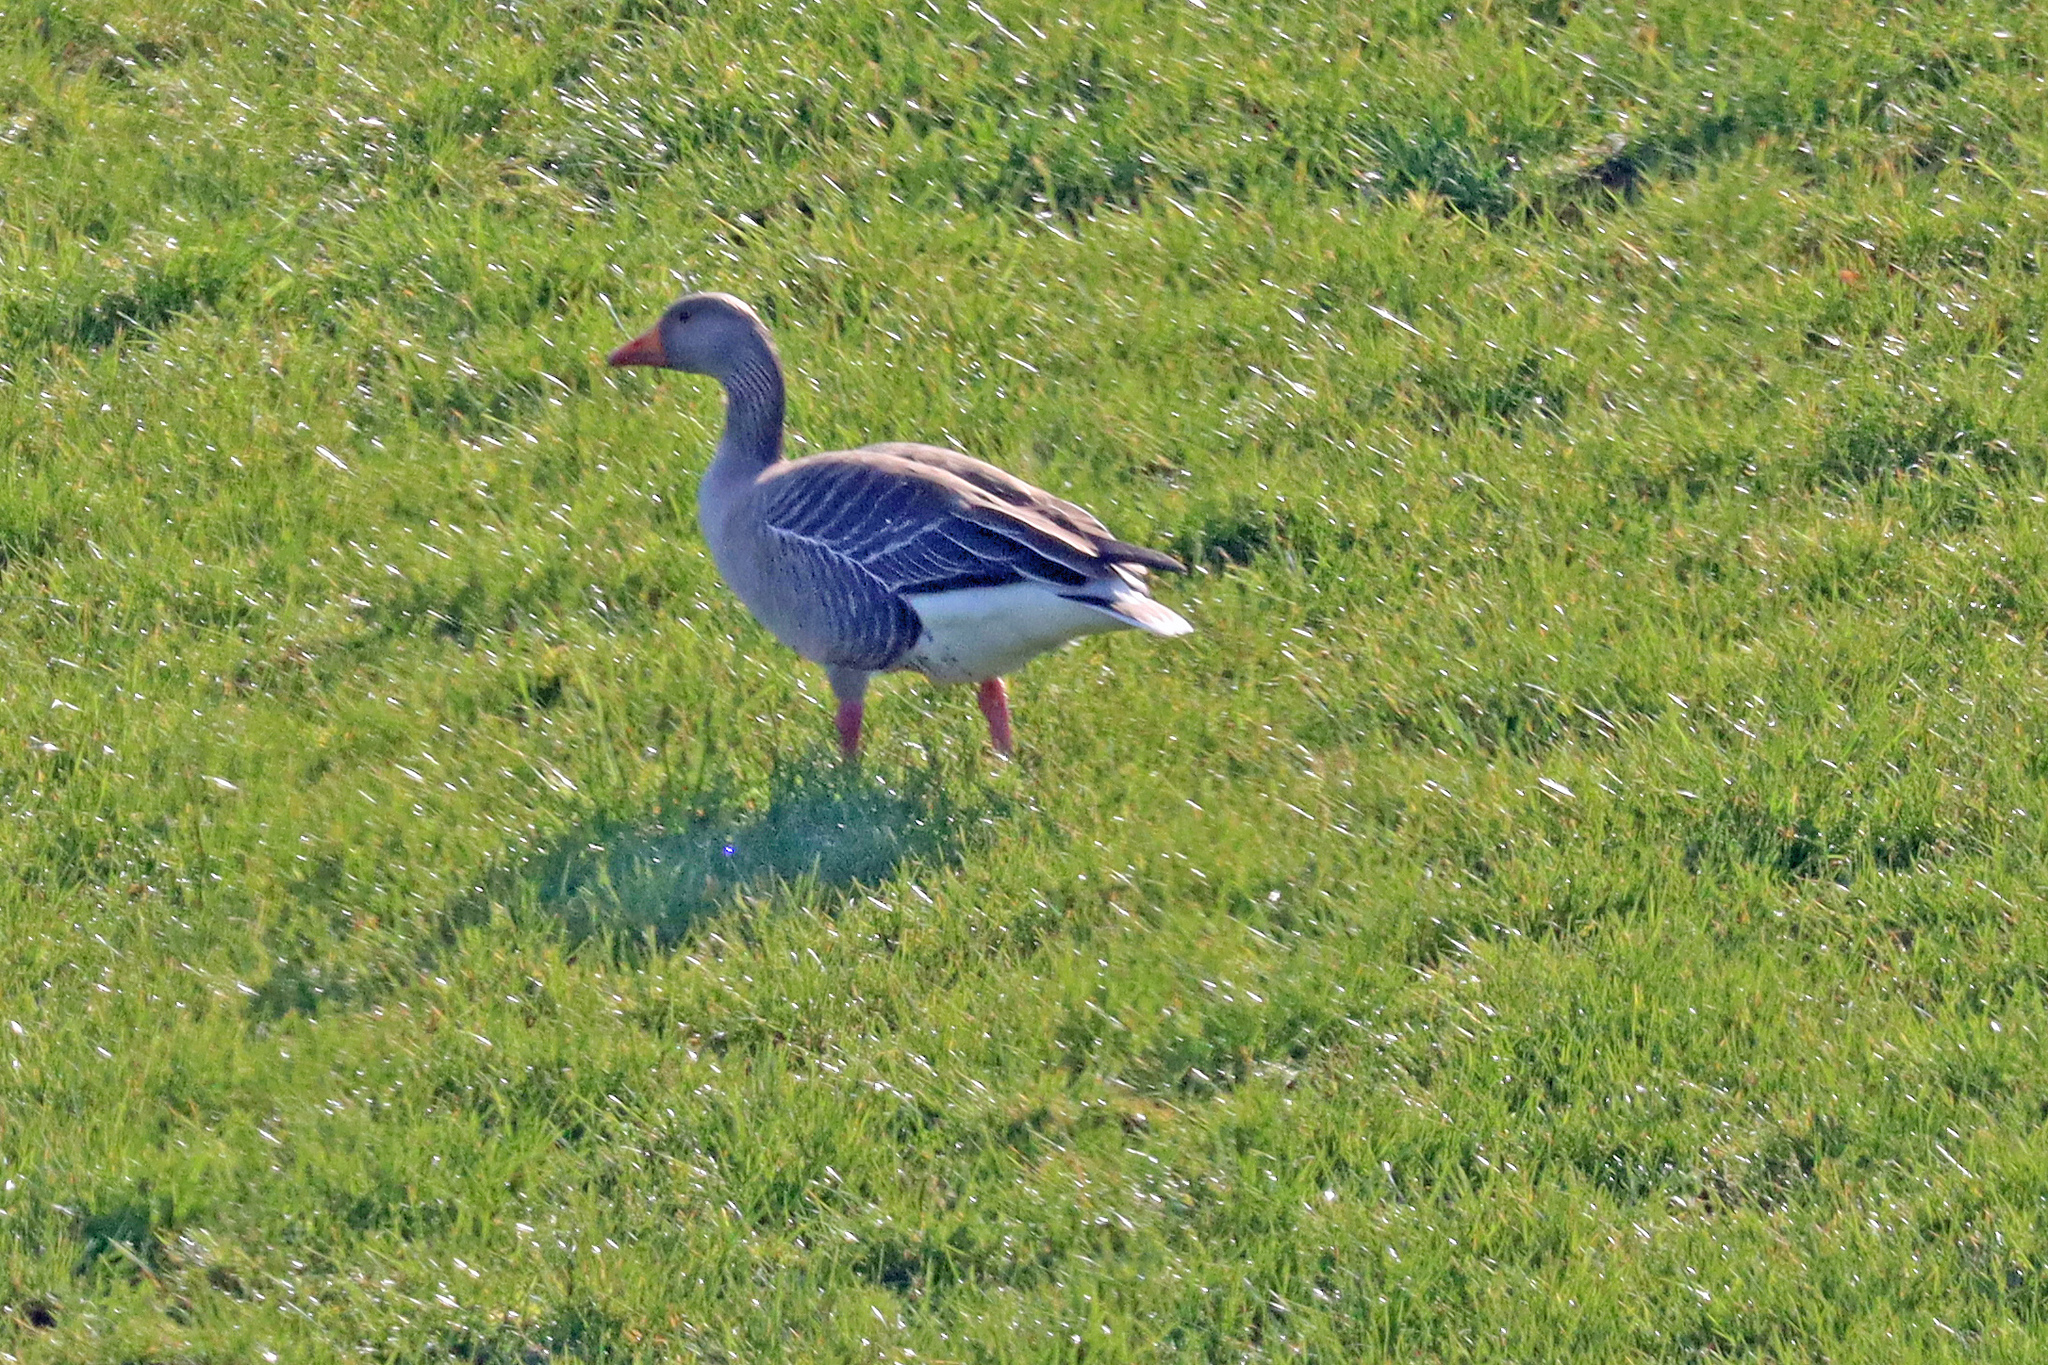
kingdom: Animalia
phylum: Chordata
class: Aves
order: Anseriformes
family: Anatidae
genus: Anser
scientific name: Anser anser
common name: Greylag goose
